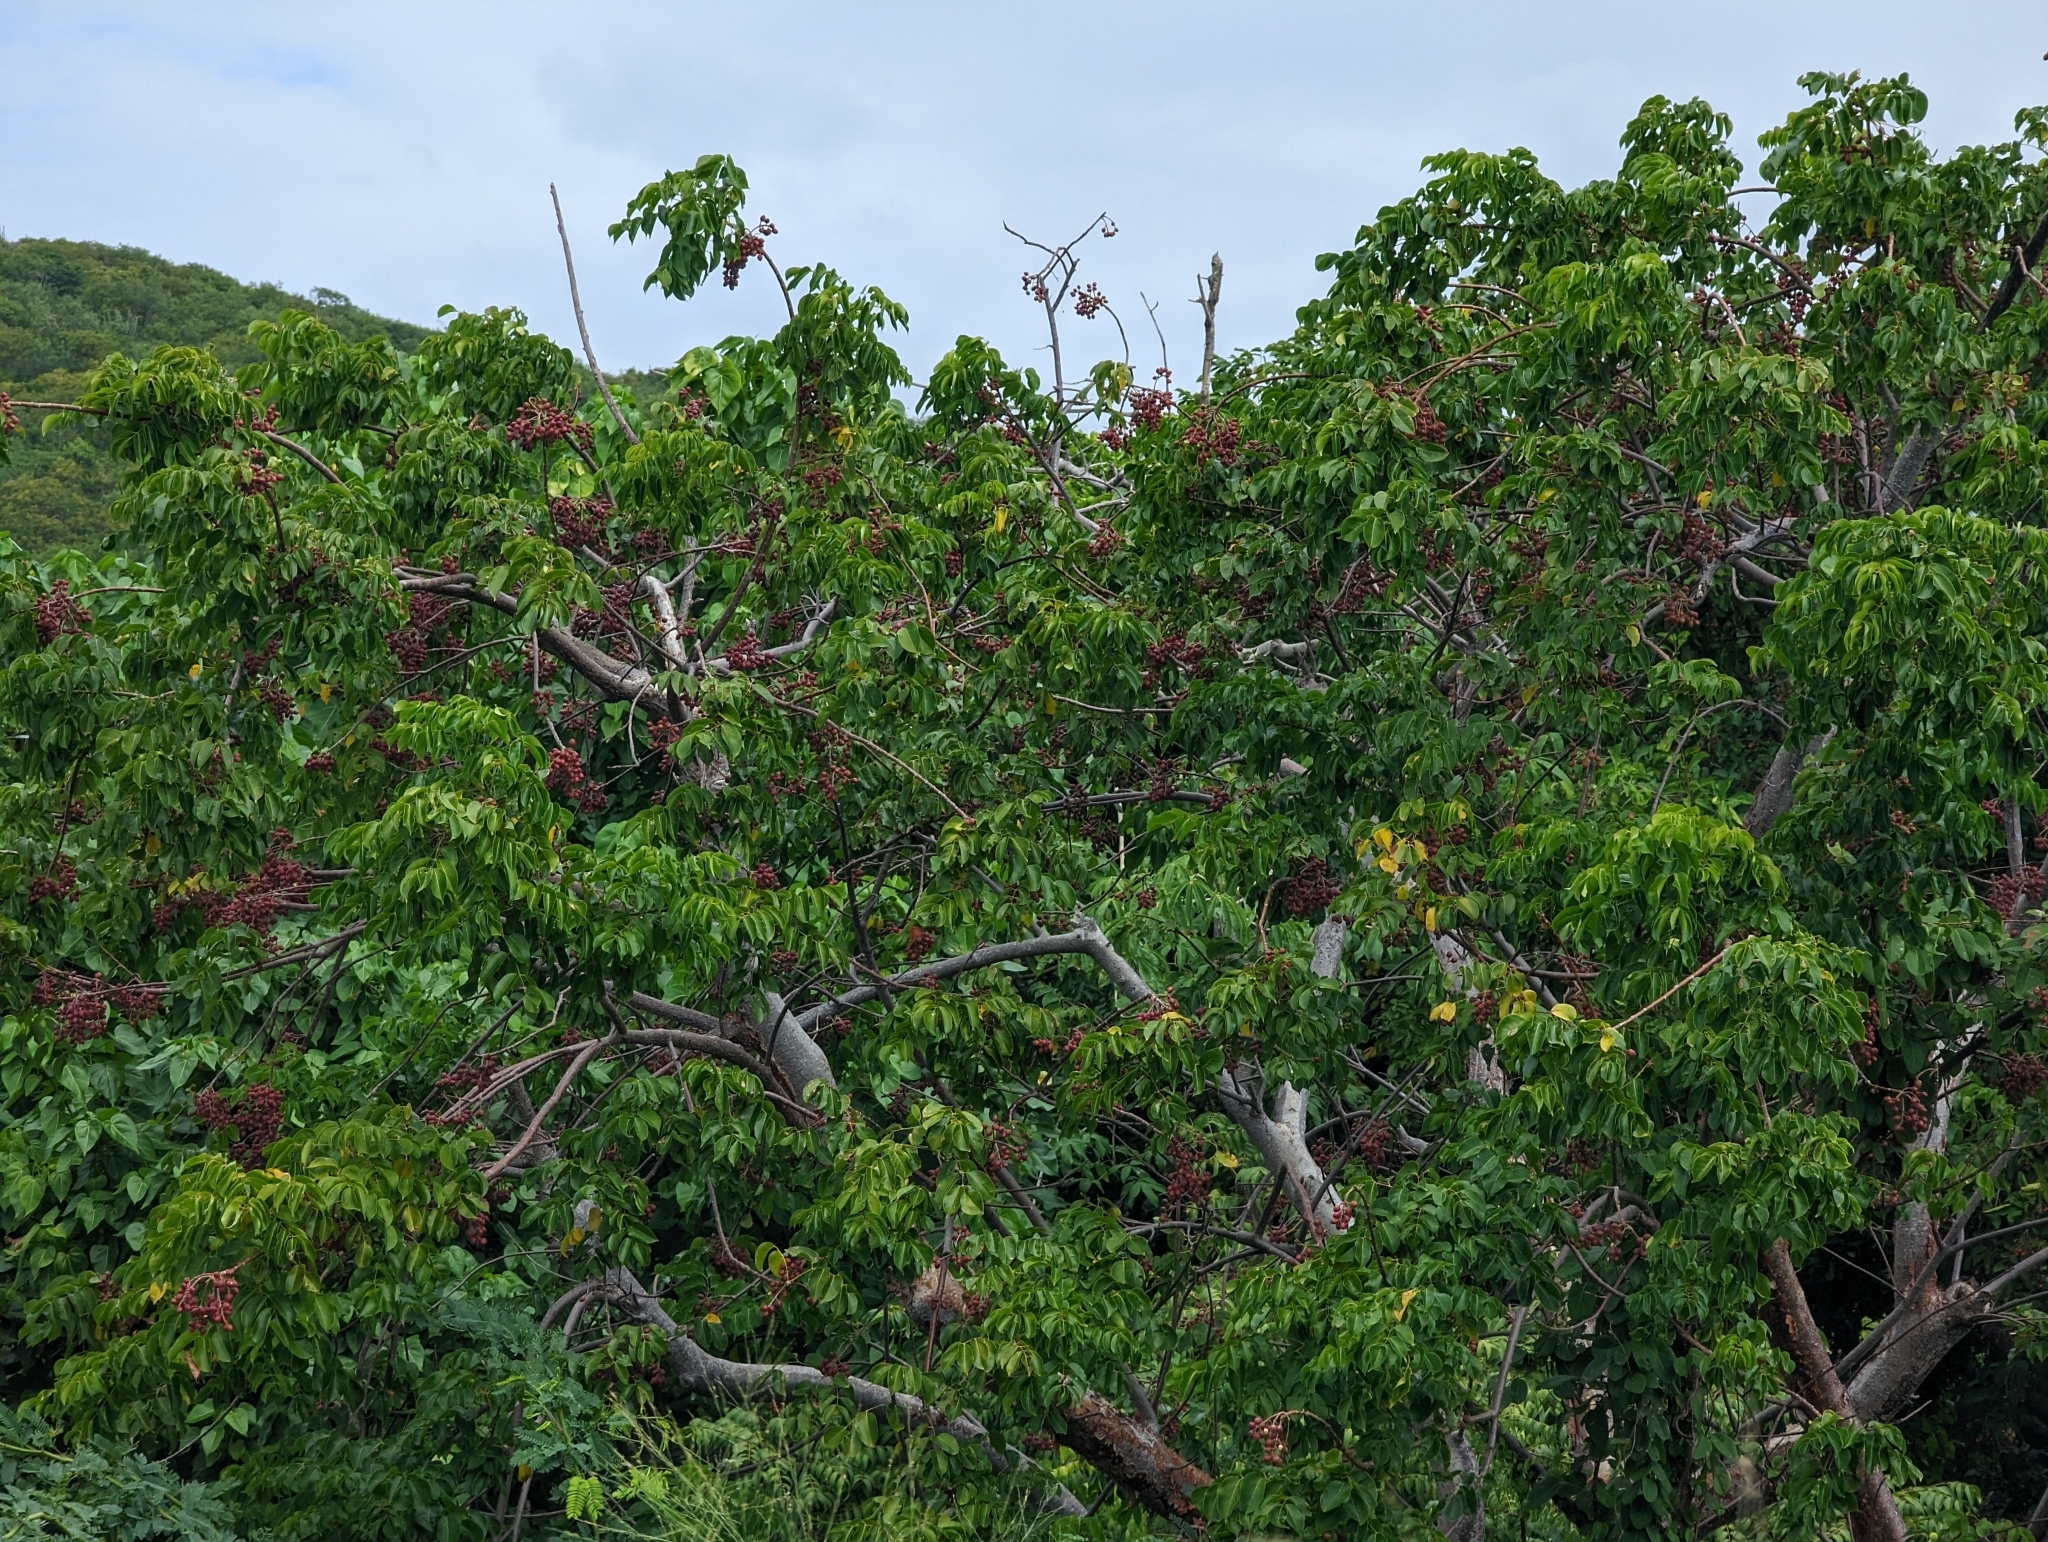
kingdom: Plantae
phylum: Tracheophyta
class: Magnoliopsida
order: Sapindales
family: Burseraceae
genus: Bursera
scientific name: Bursera simaruba
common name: Turpentine tree
